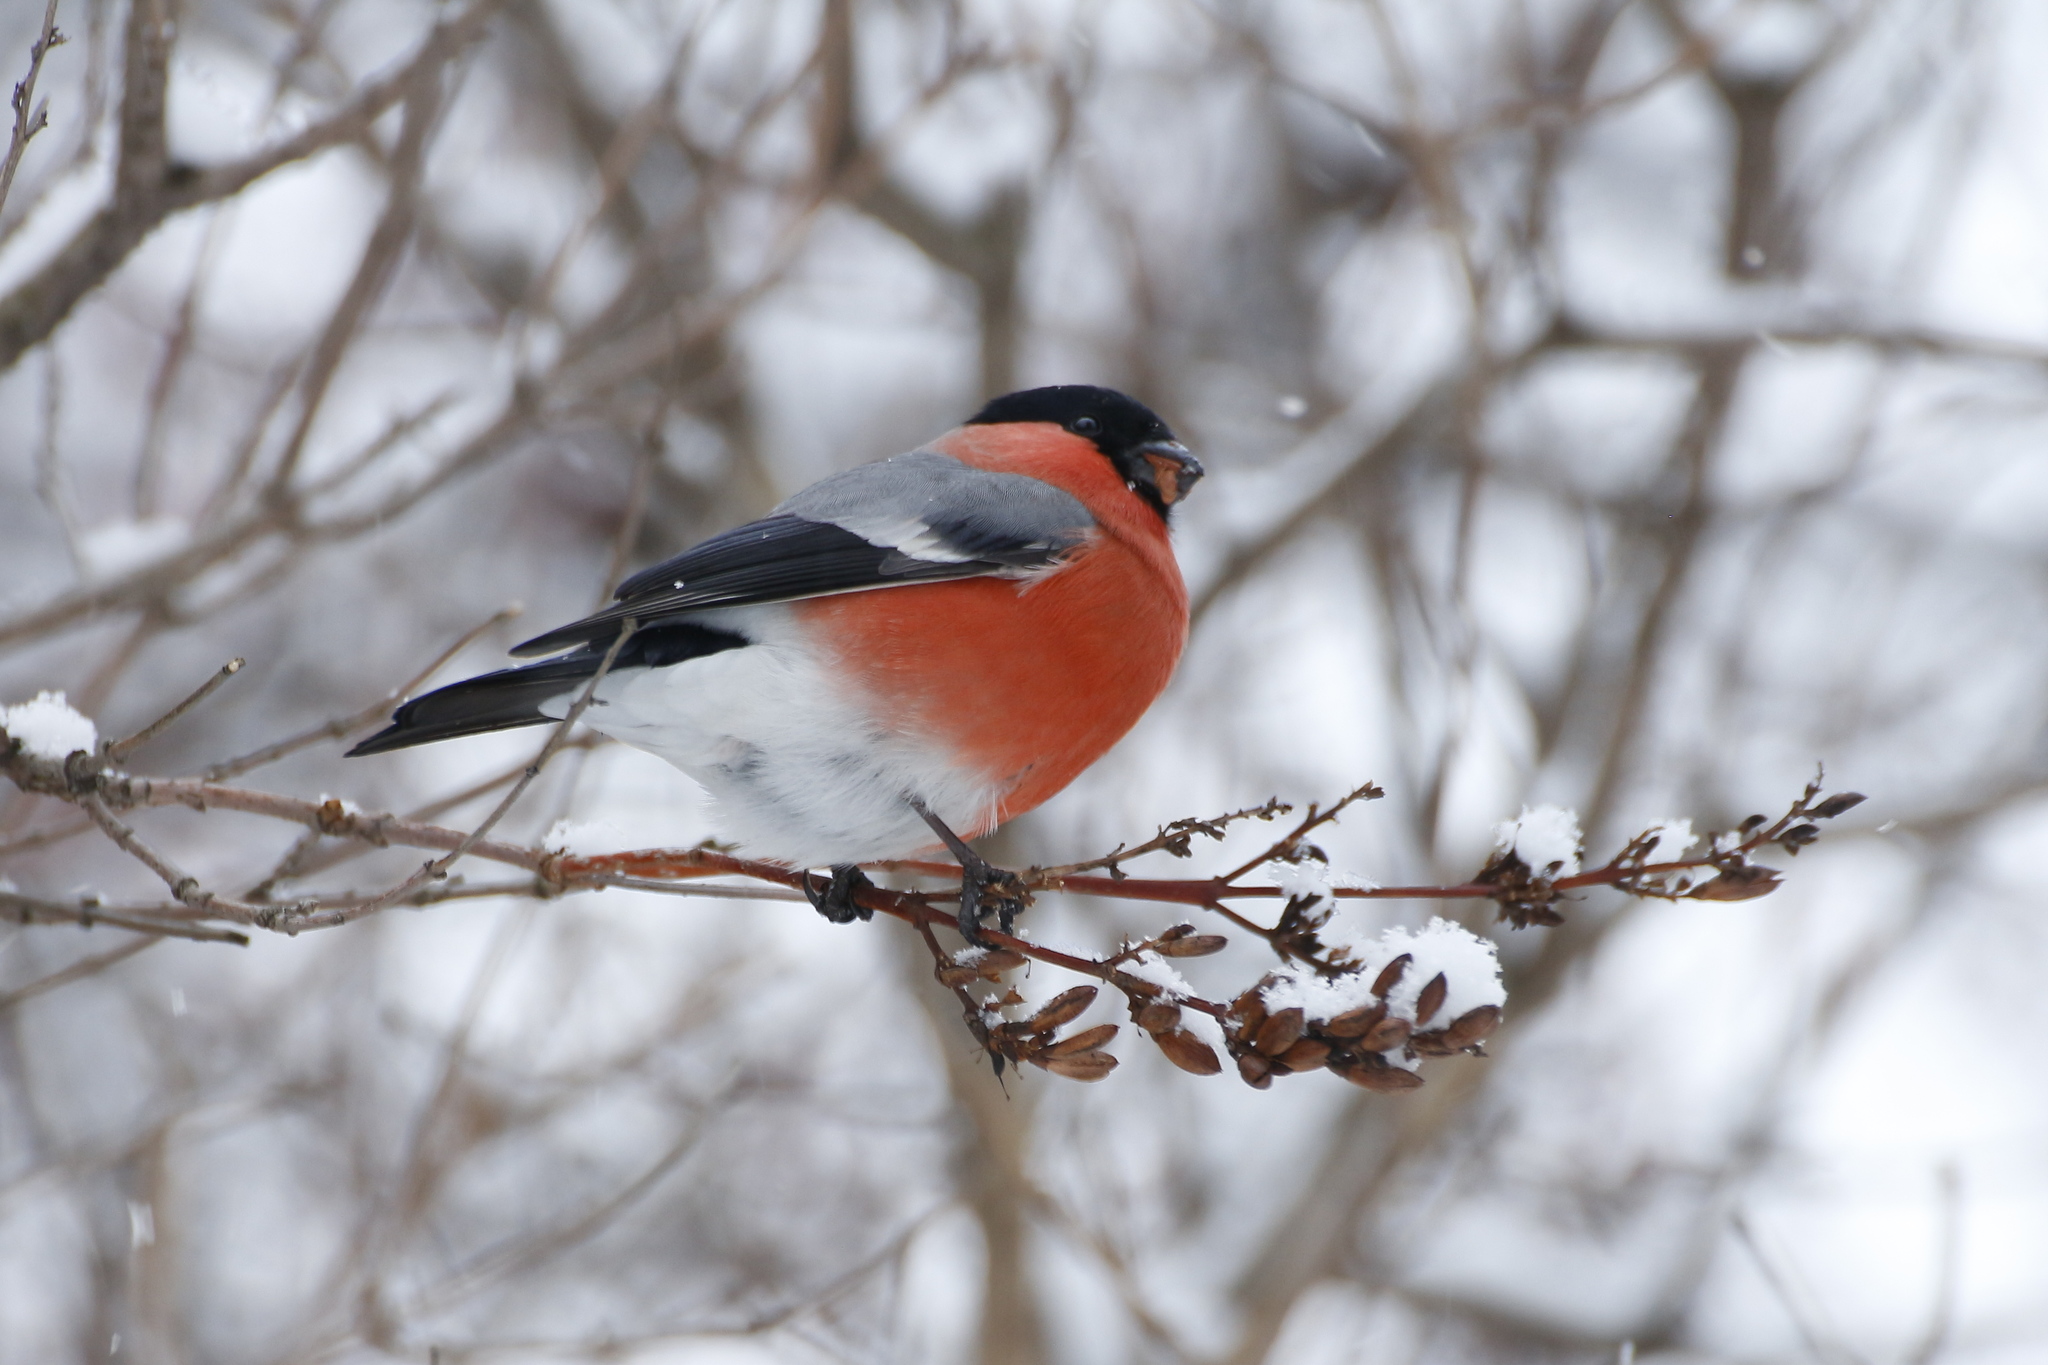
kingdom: Animalia
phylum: Chordata
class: Aves
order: Passeriformes
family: Fringillidae
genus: Pyrrhula
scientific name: Pyrrhula pyrrhula
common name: Eurasian bullfinch
